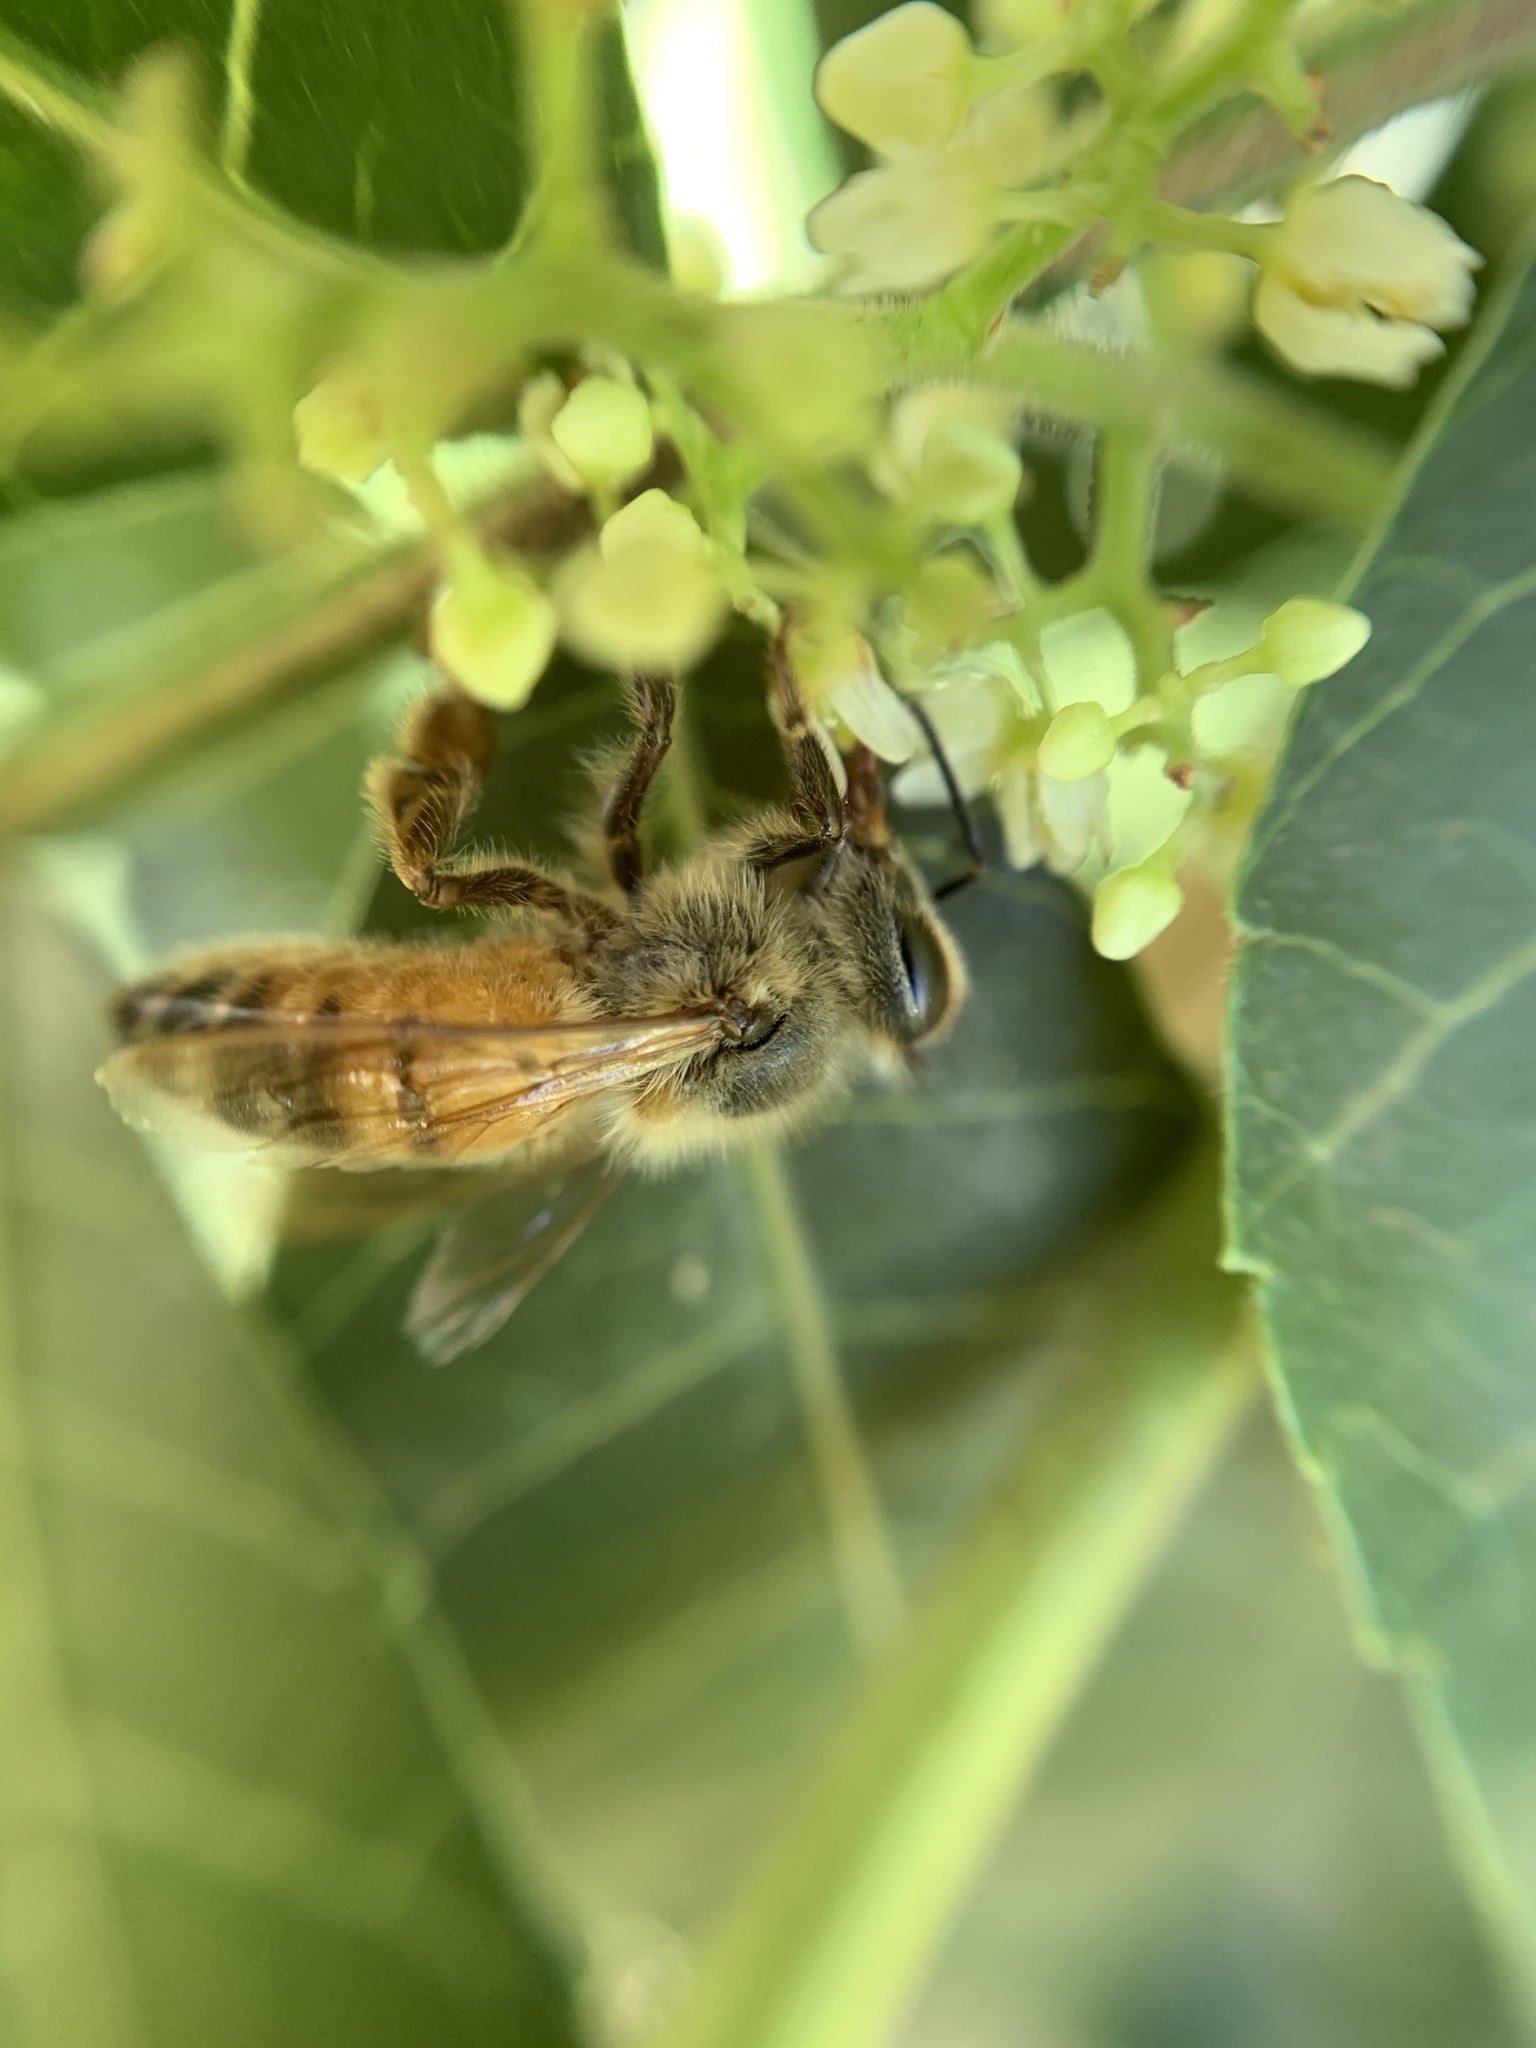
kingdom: Animalia
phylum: Arthropoda
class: Insecta
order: Hymenoptera
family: Apidae
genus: Apis
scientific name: Apis mellifera
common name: Honey bee
